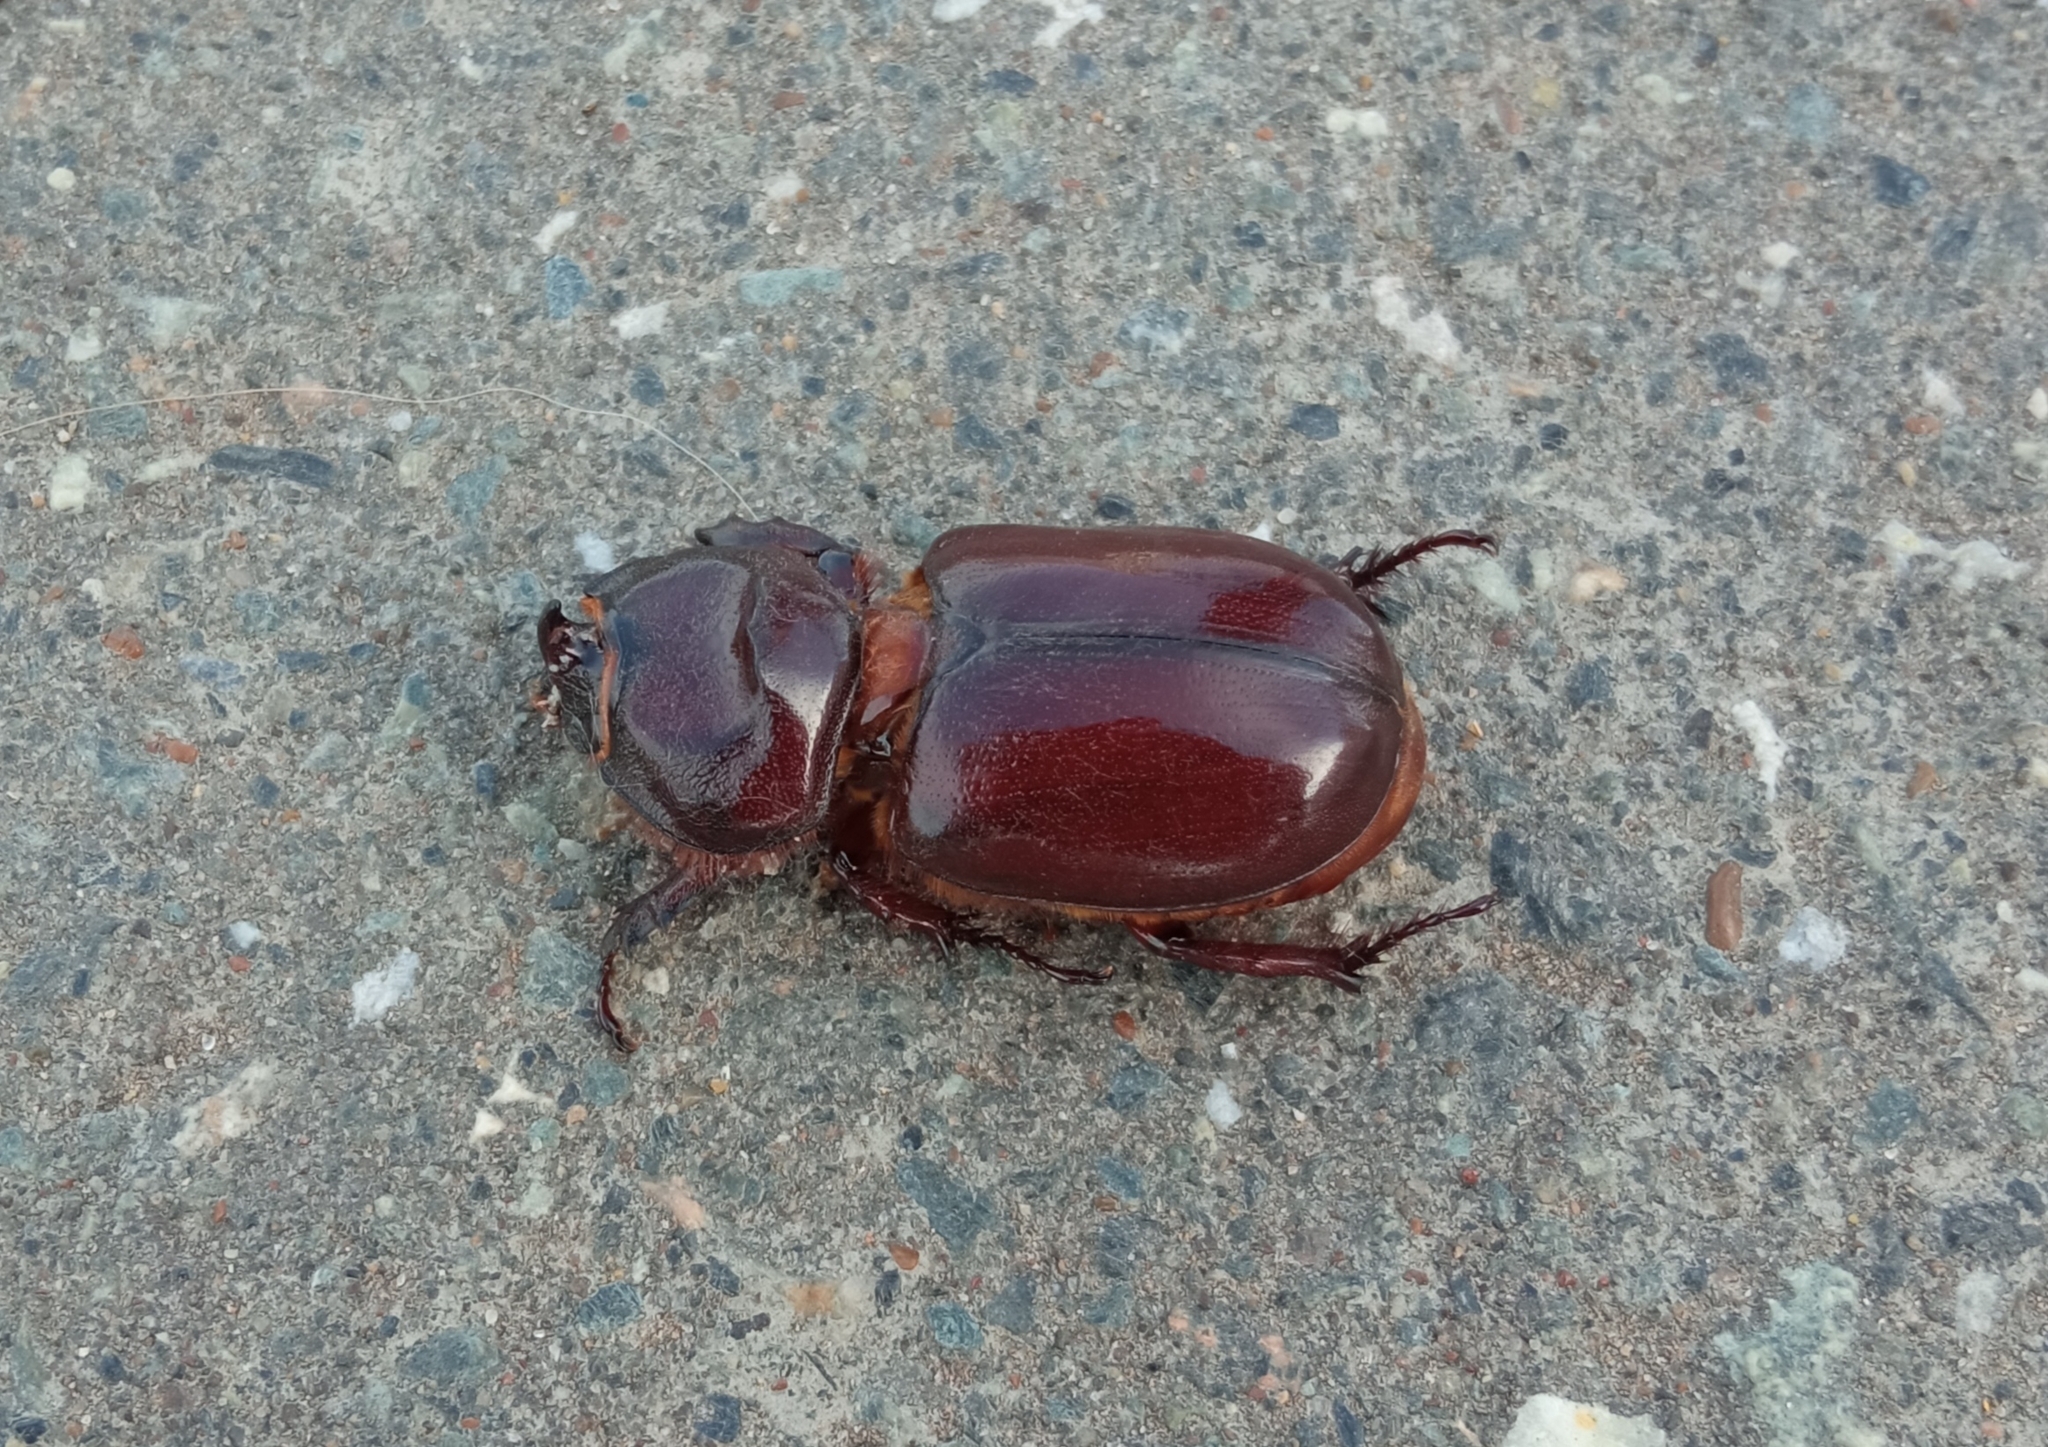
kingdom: Animalia
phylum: Arthropoda
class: Insecta
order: Coleoptera
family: Scarabaeidae
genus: Oryctes
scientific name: Oryctes nasicornis
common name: European rhinoceros beetle
